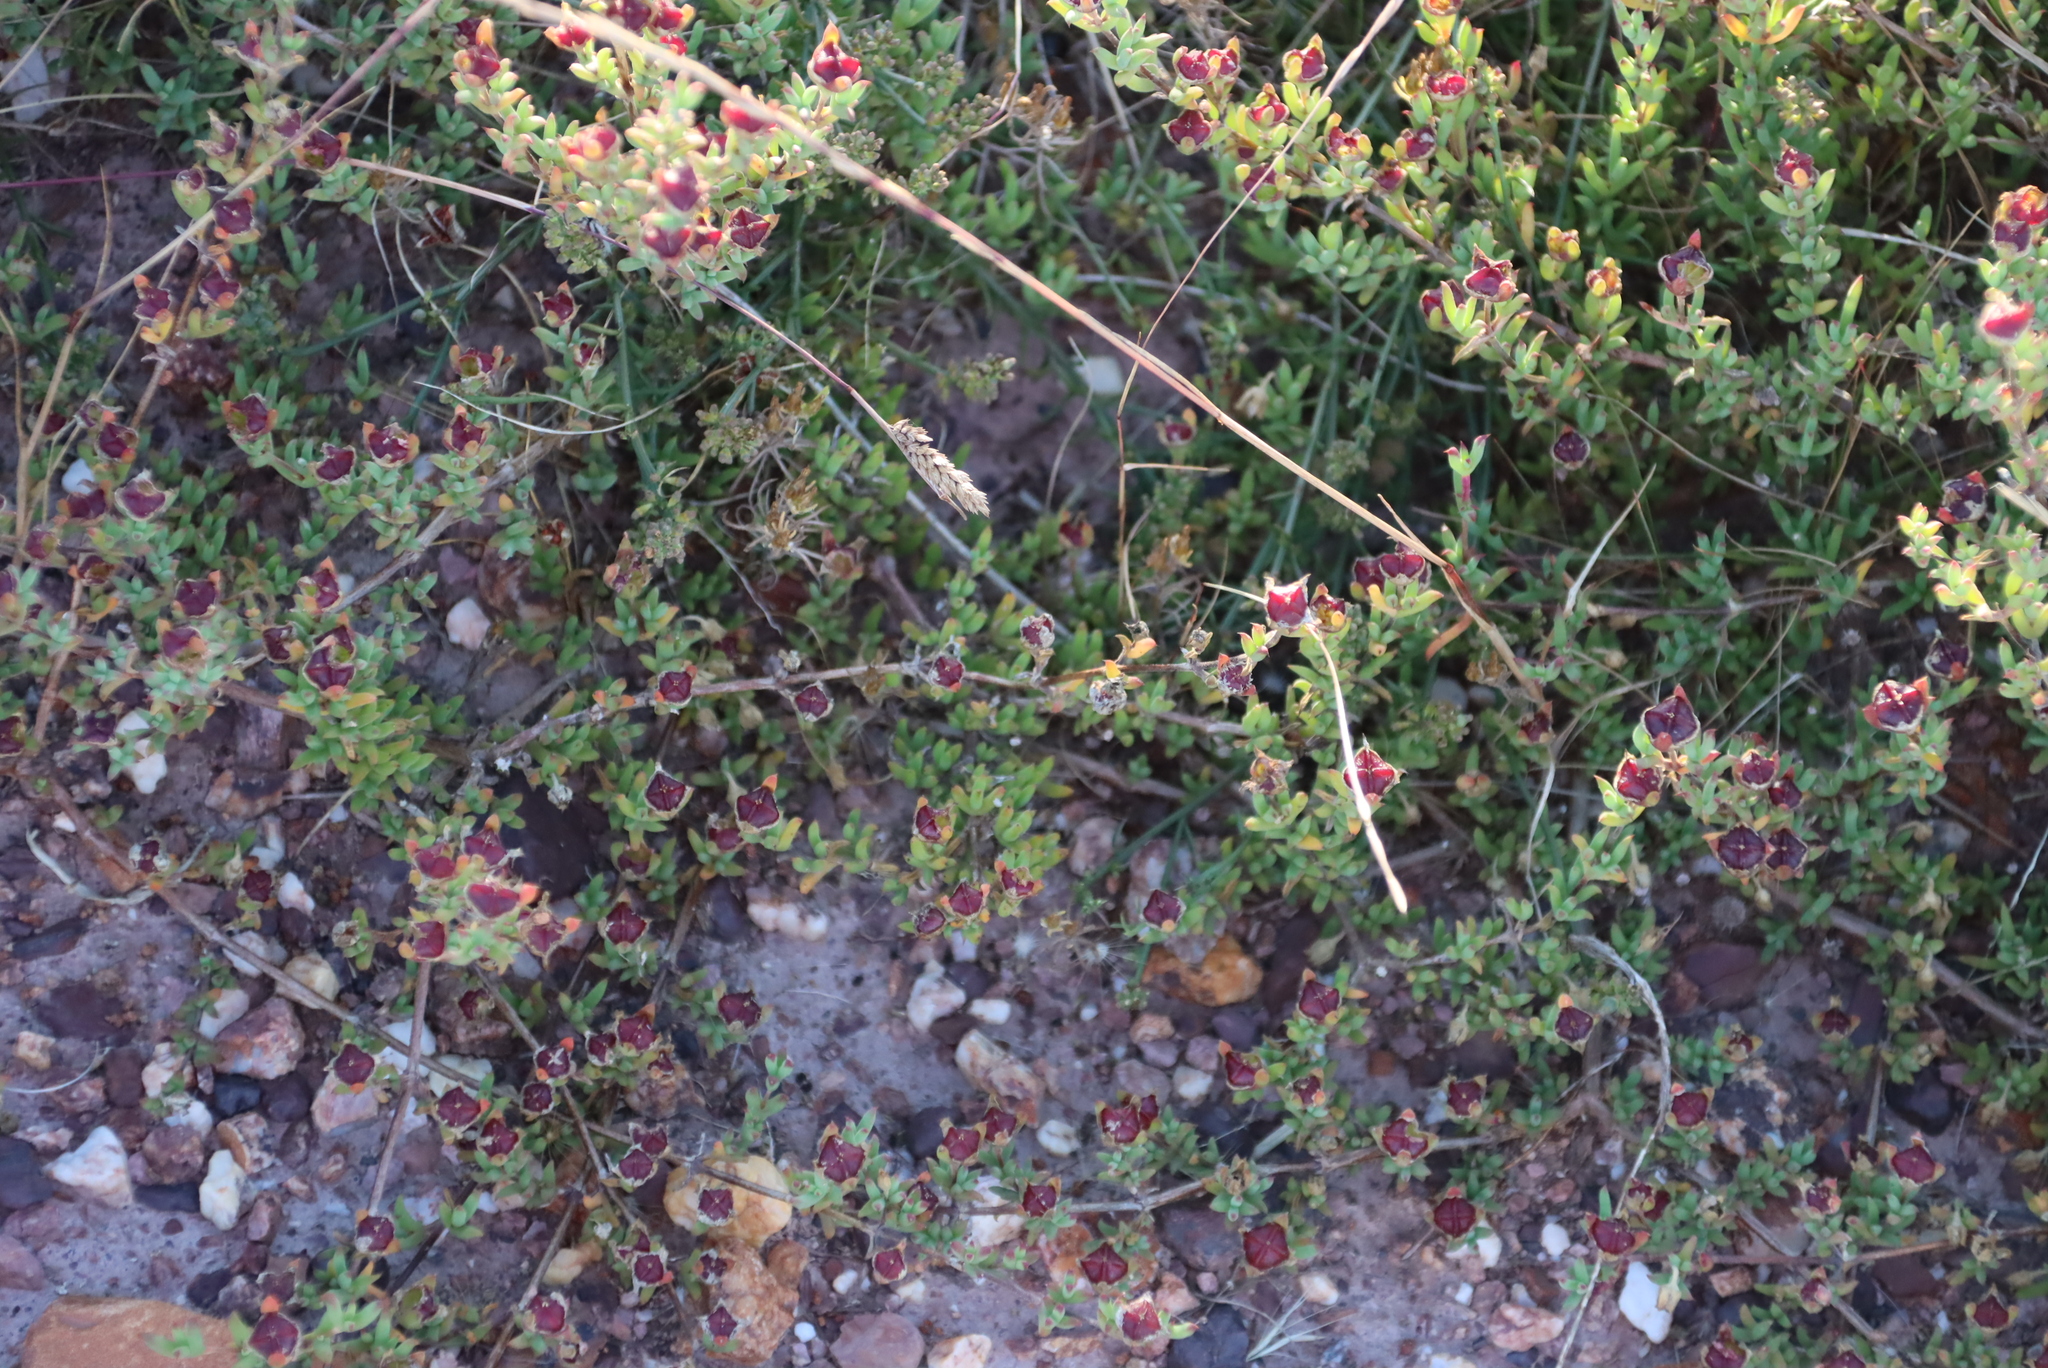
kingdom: Plantae
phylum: Tracheophyta
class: Magnoliopsida
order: Caryophyllales
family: Aizoaceae
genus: Delosperma
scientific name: Delosperma asperulum
